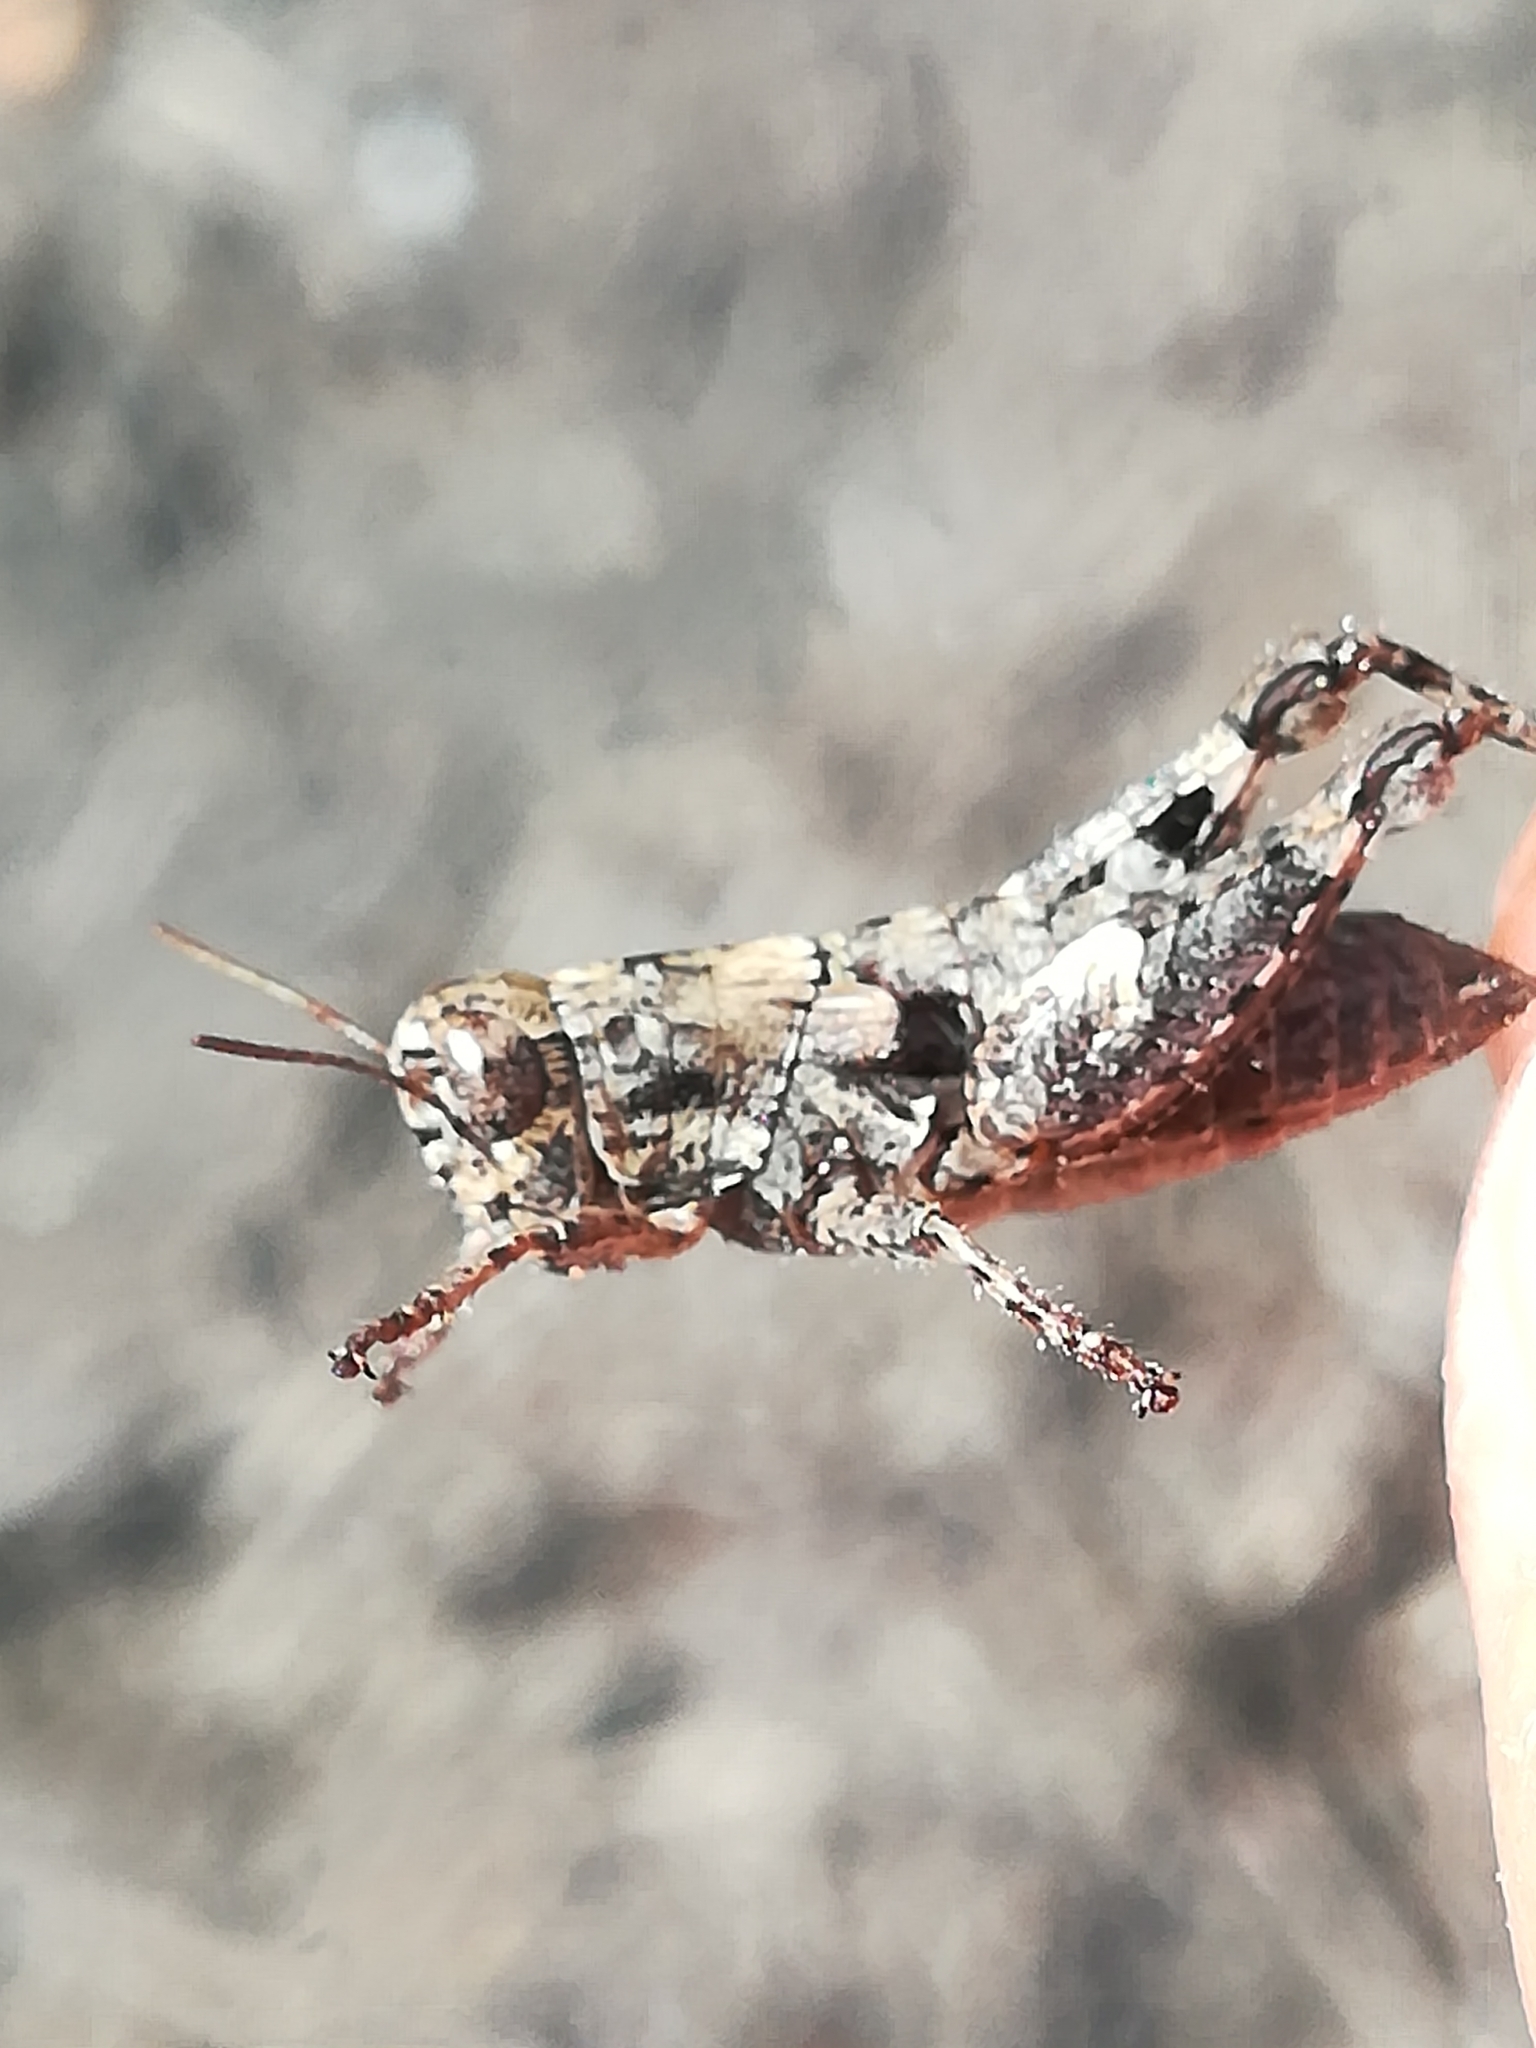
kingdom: Animalia
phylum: Arthropoda
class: Insecta
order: Orthoptera
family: Acrididae
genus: Pezotettix
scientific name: Pezotettix giornae
